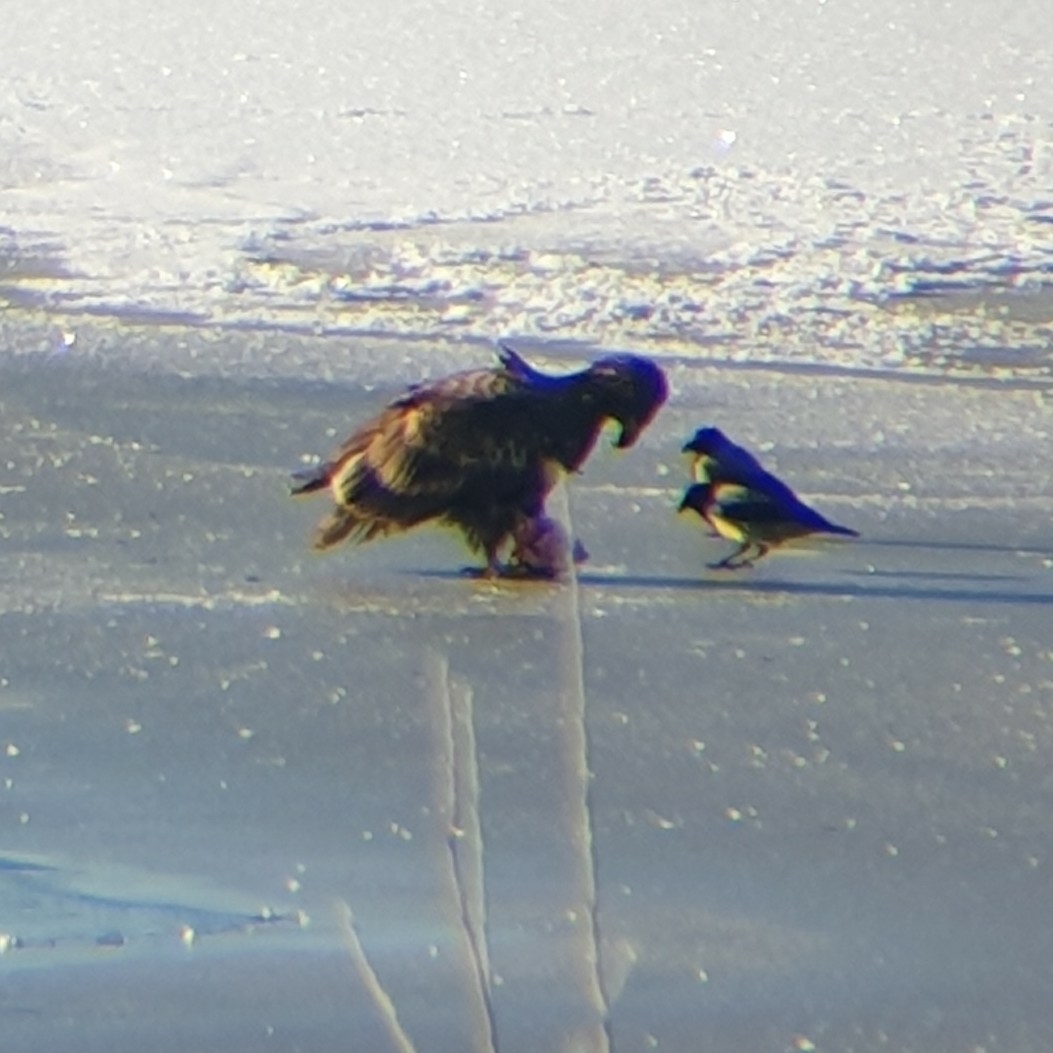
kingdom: Animalia
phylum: Chordata
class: Aves
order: Accipitriformes
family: Accipitridae
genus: Haliaeetus
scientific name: Haliaeetus albicilla
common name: White-tailed eagle
